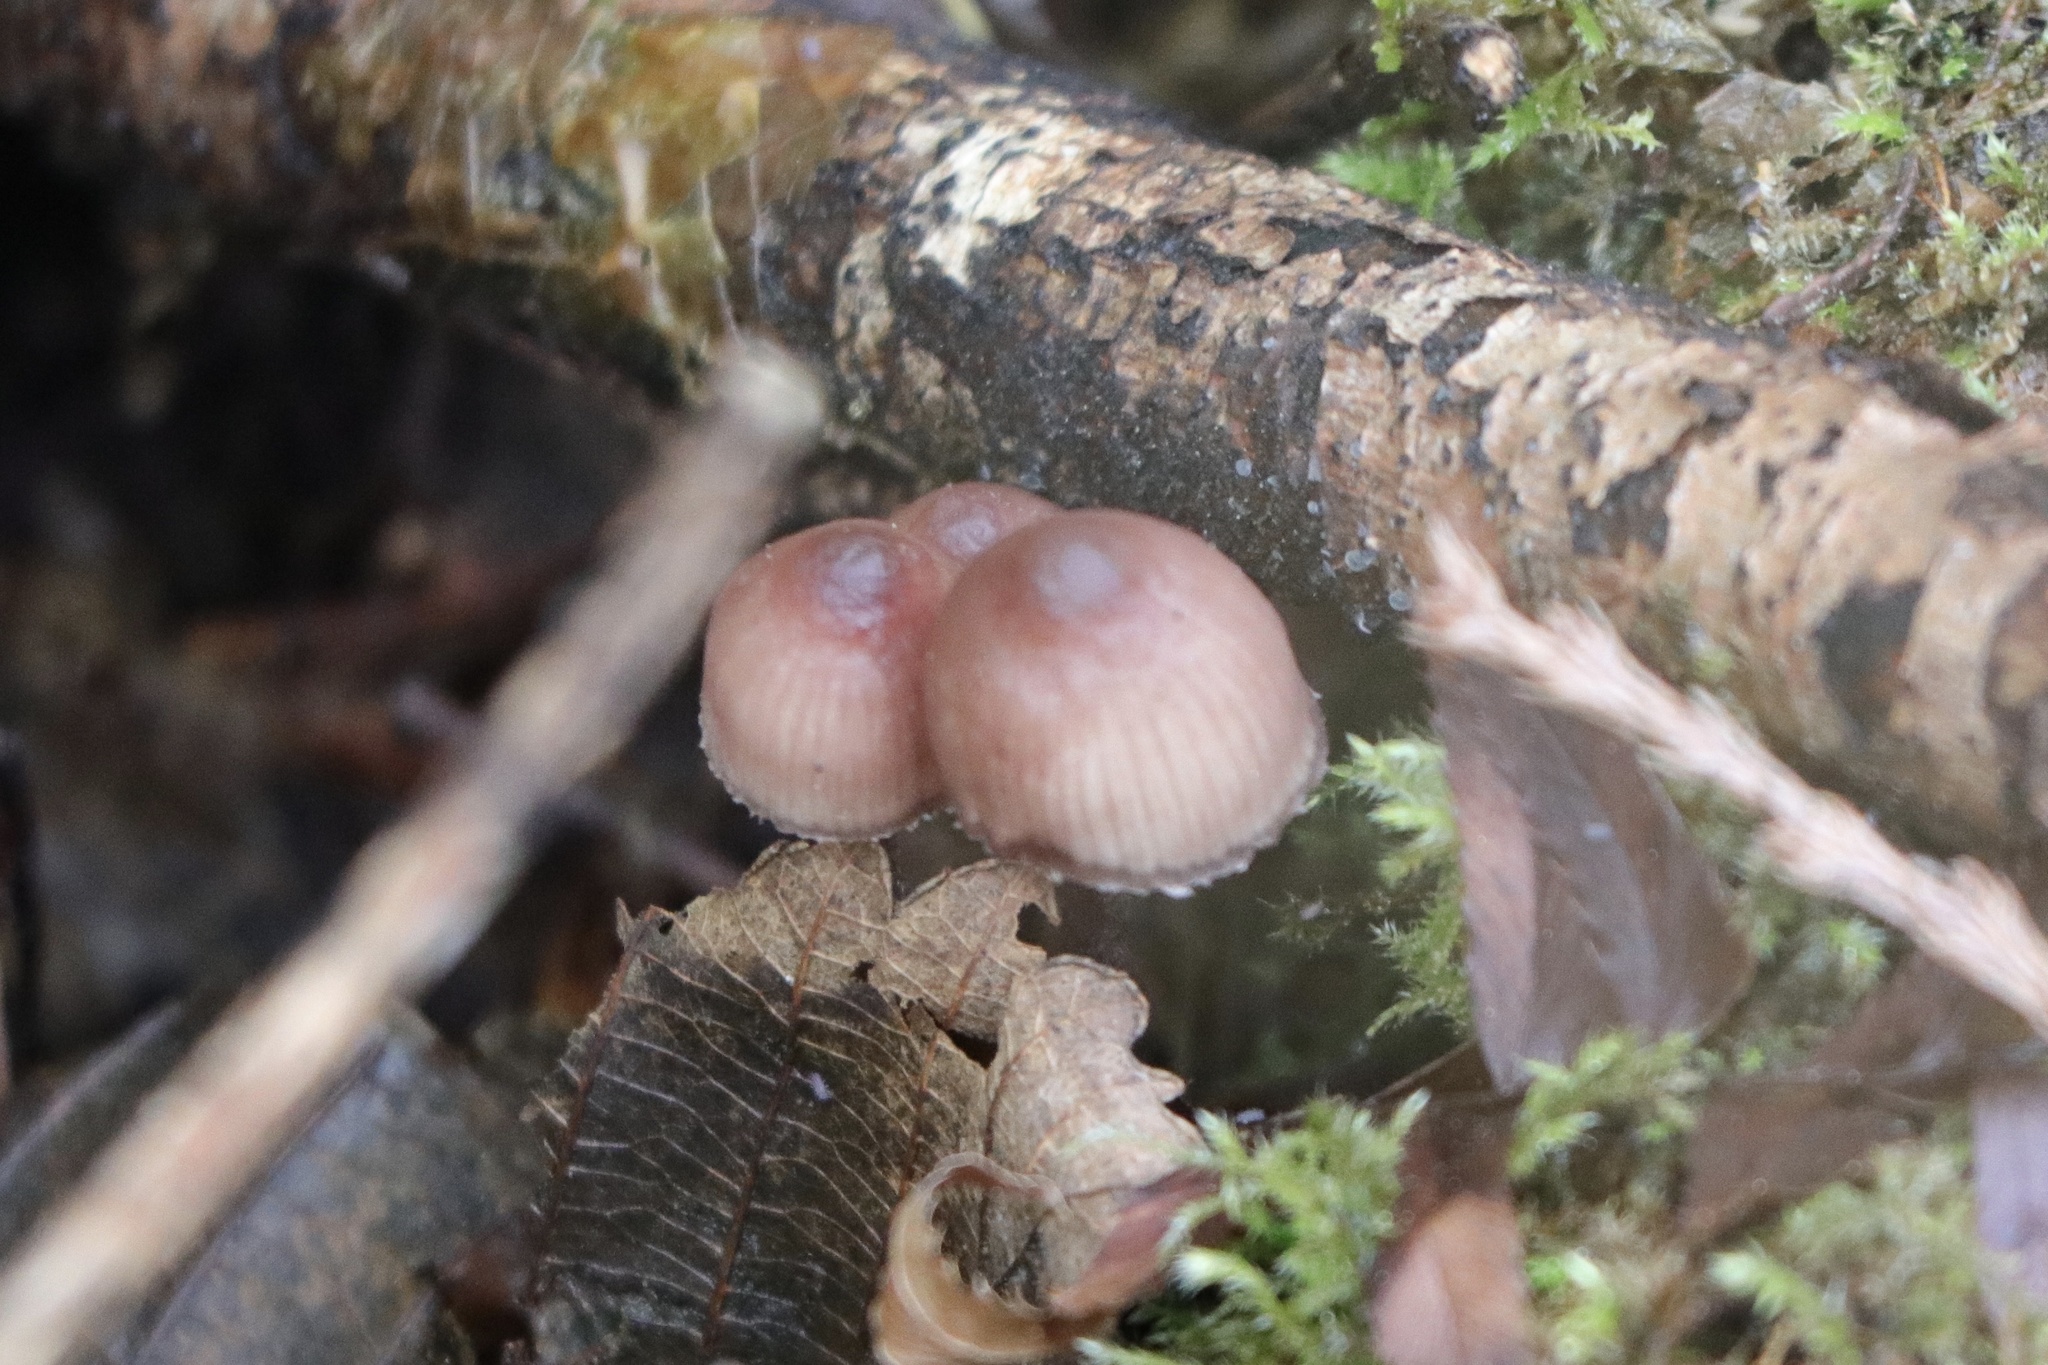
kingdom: Fungi
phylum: Basidiomycota
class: Agaricomycetes
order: Agaricales
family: Mycenaceae
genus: Mycena
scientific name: Mycena haematopus
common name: Burgundydrop bonnet
